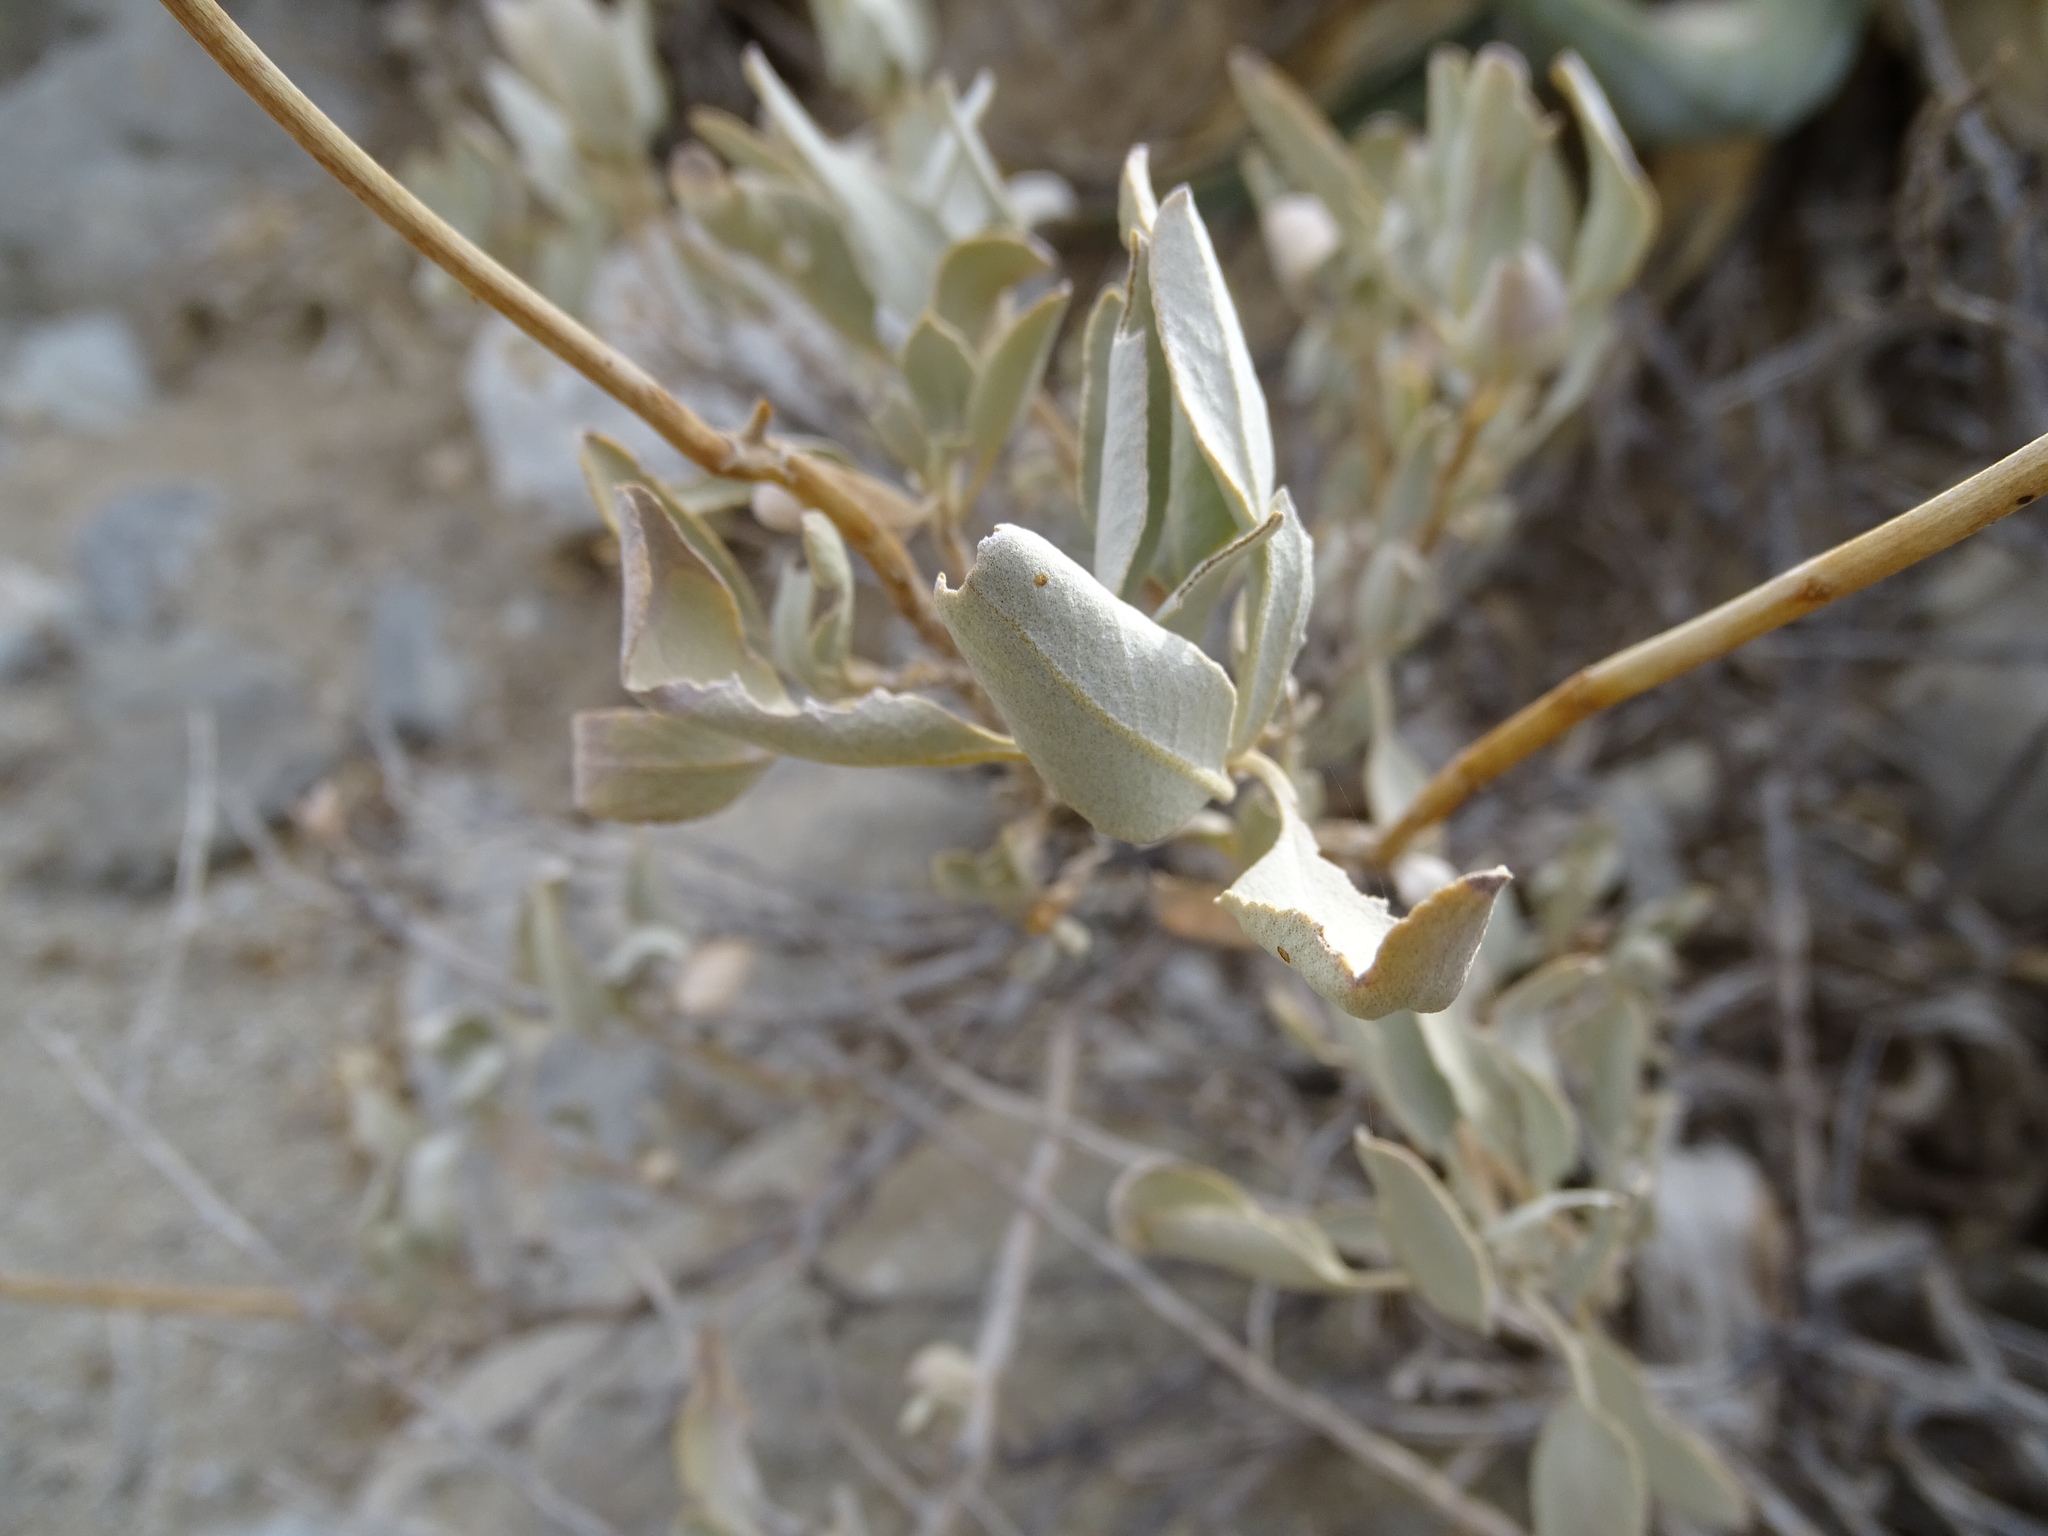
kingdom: Plantae
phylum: Tracheophyta
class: Magnoliopsida
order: Lamiales
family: Lamiaceae
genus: Salvia
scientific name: Salvia vaseyi
